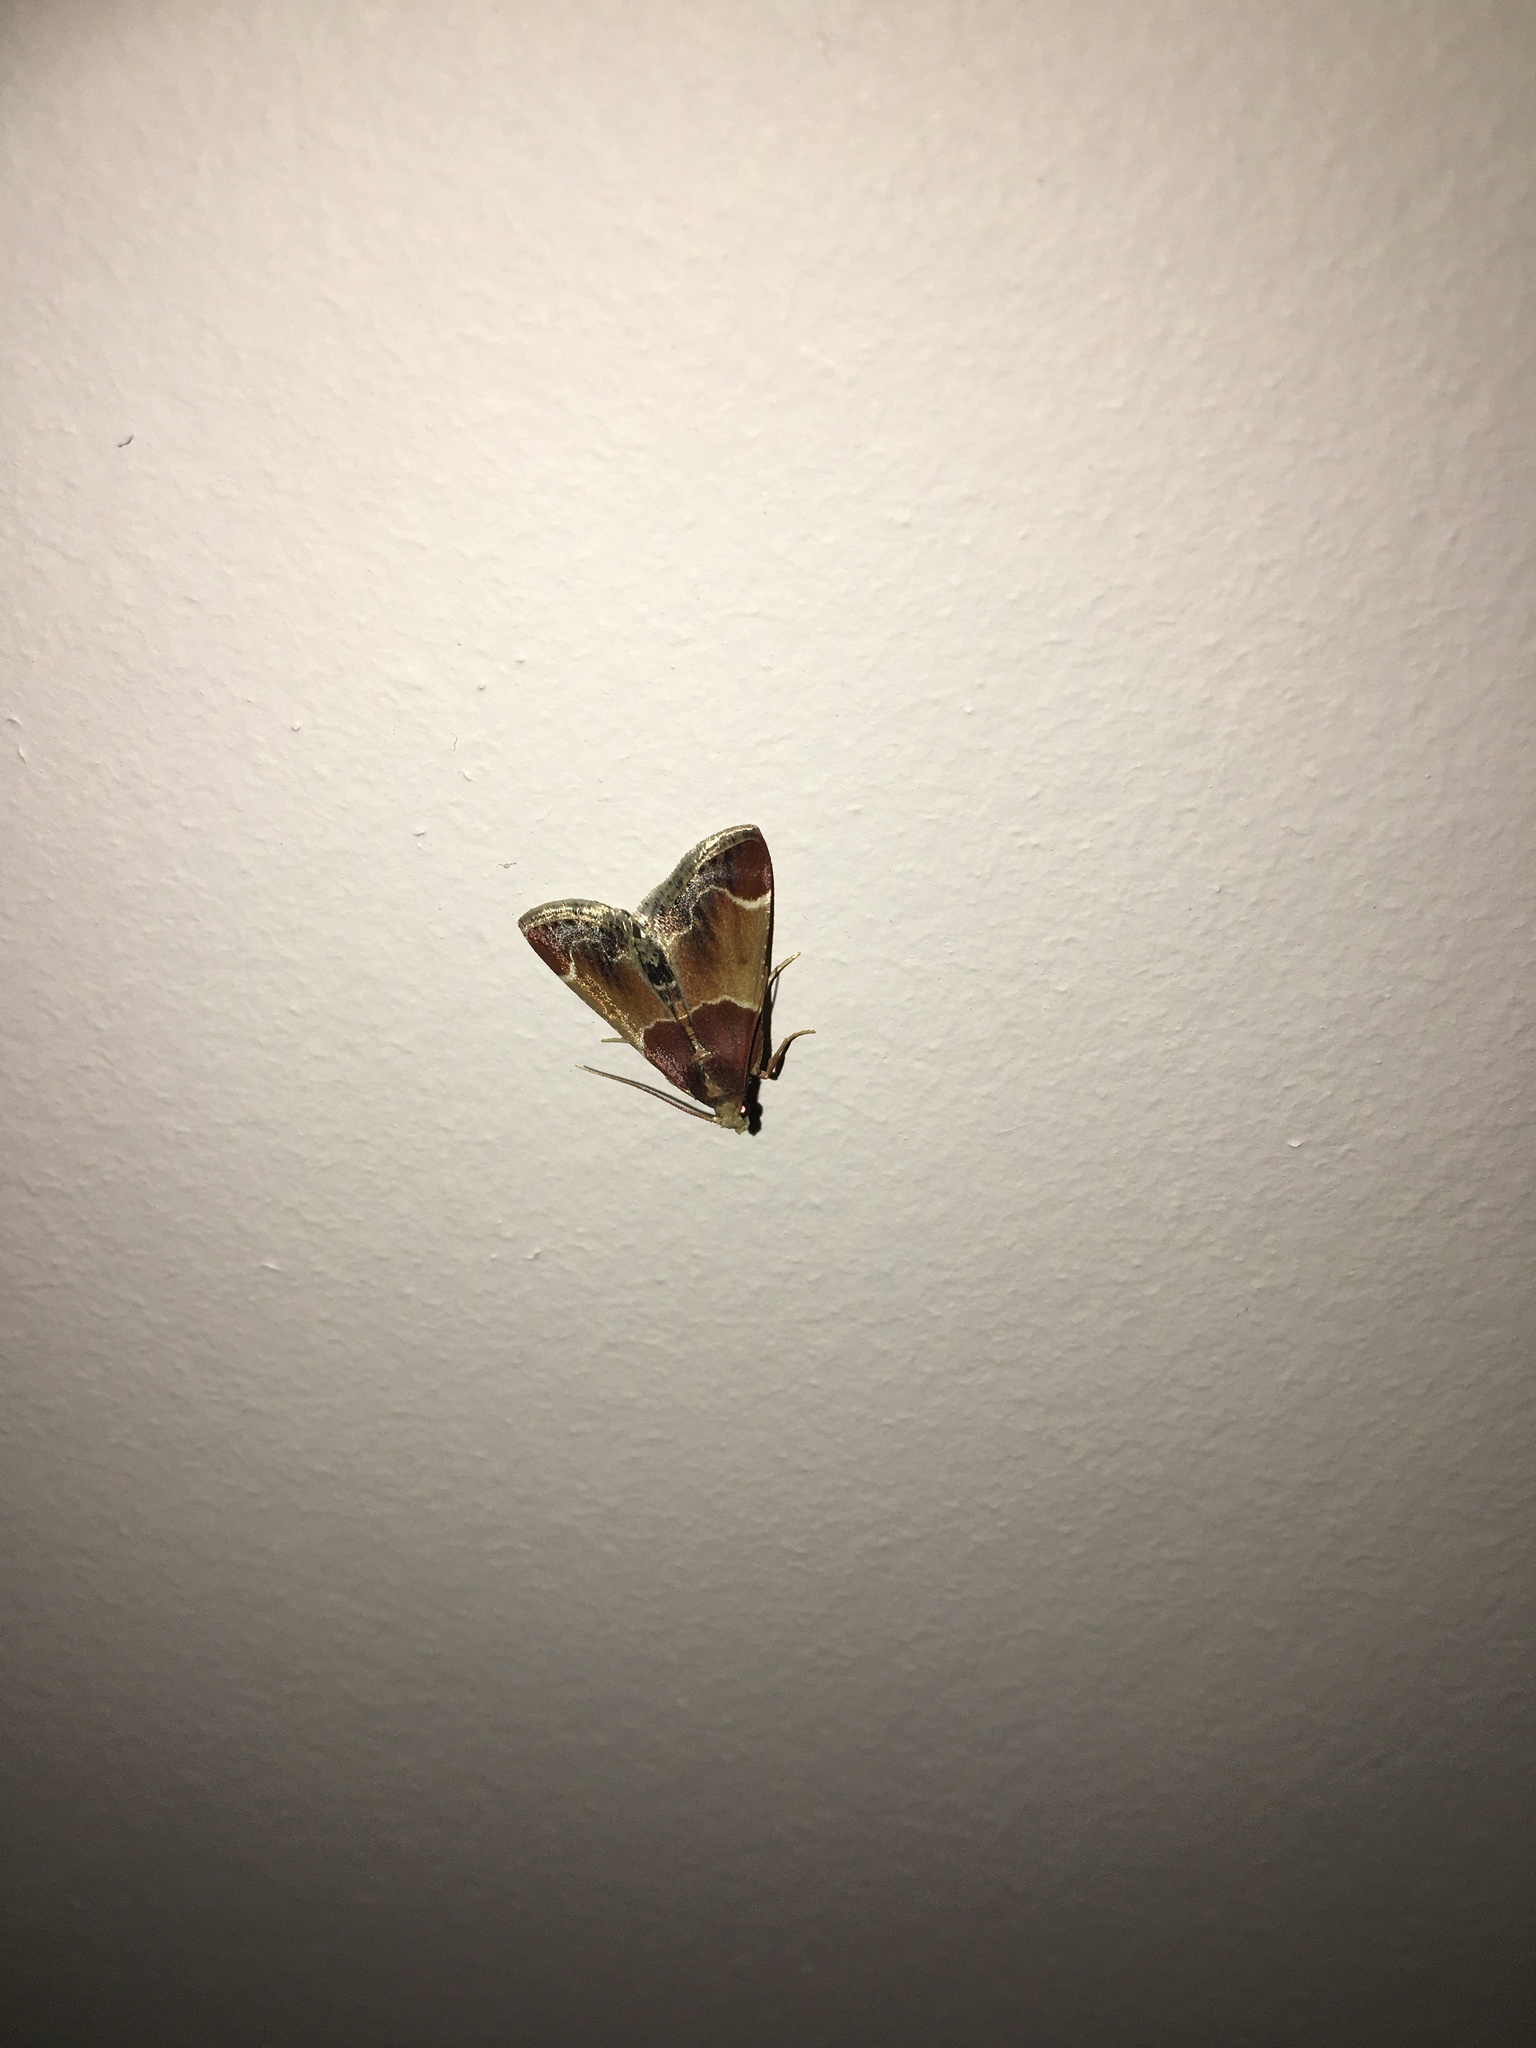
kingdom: Animalia
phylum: Arthropoda
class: Insecta
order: Lepidoptera
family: Pyralidae
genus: Pyralis
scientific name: Pyralis farinalis
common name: Meal moth
